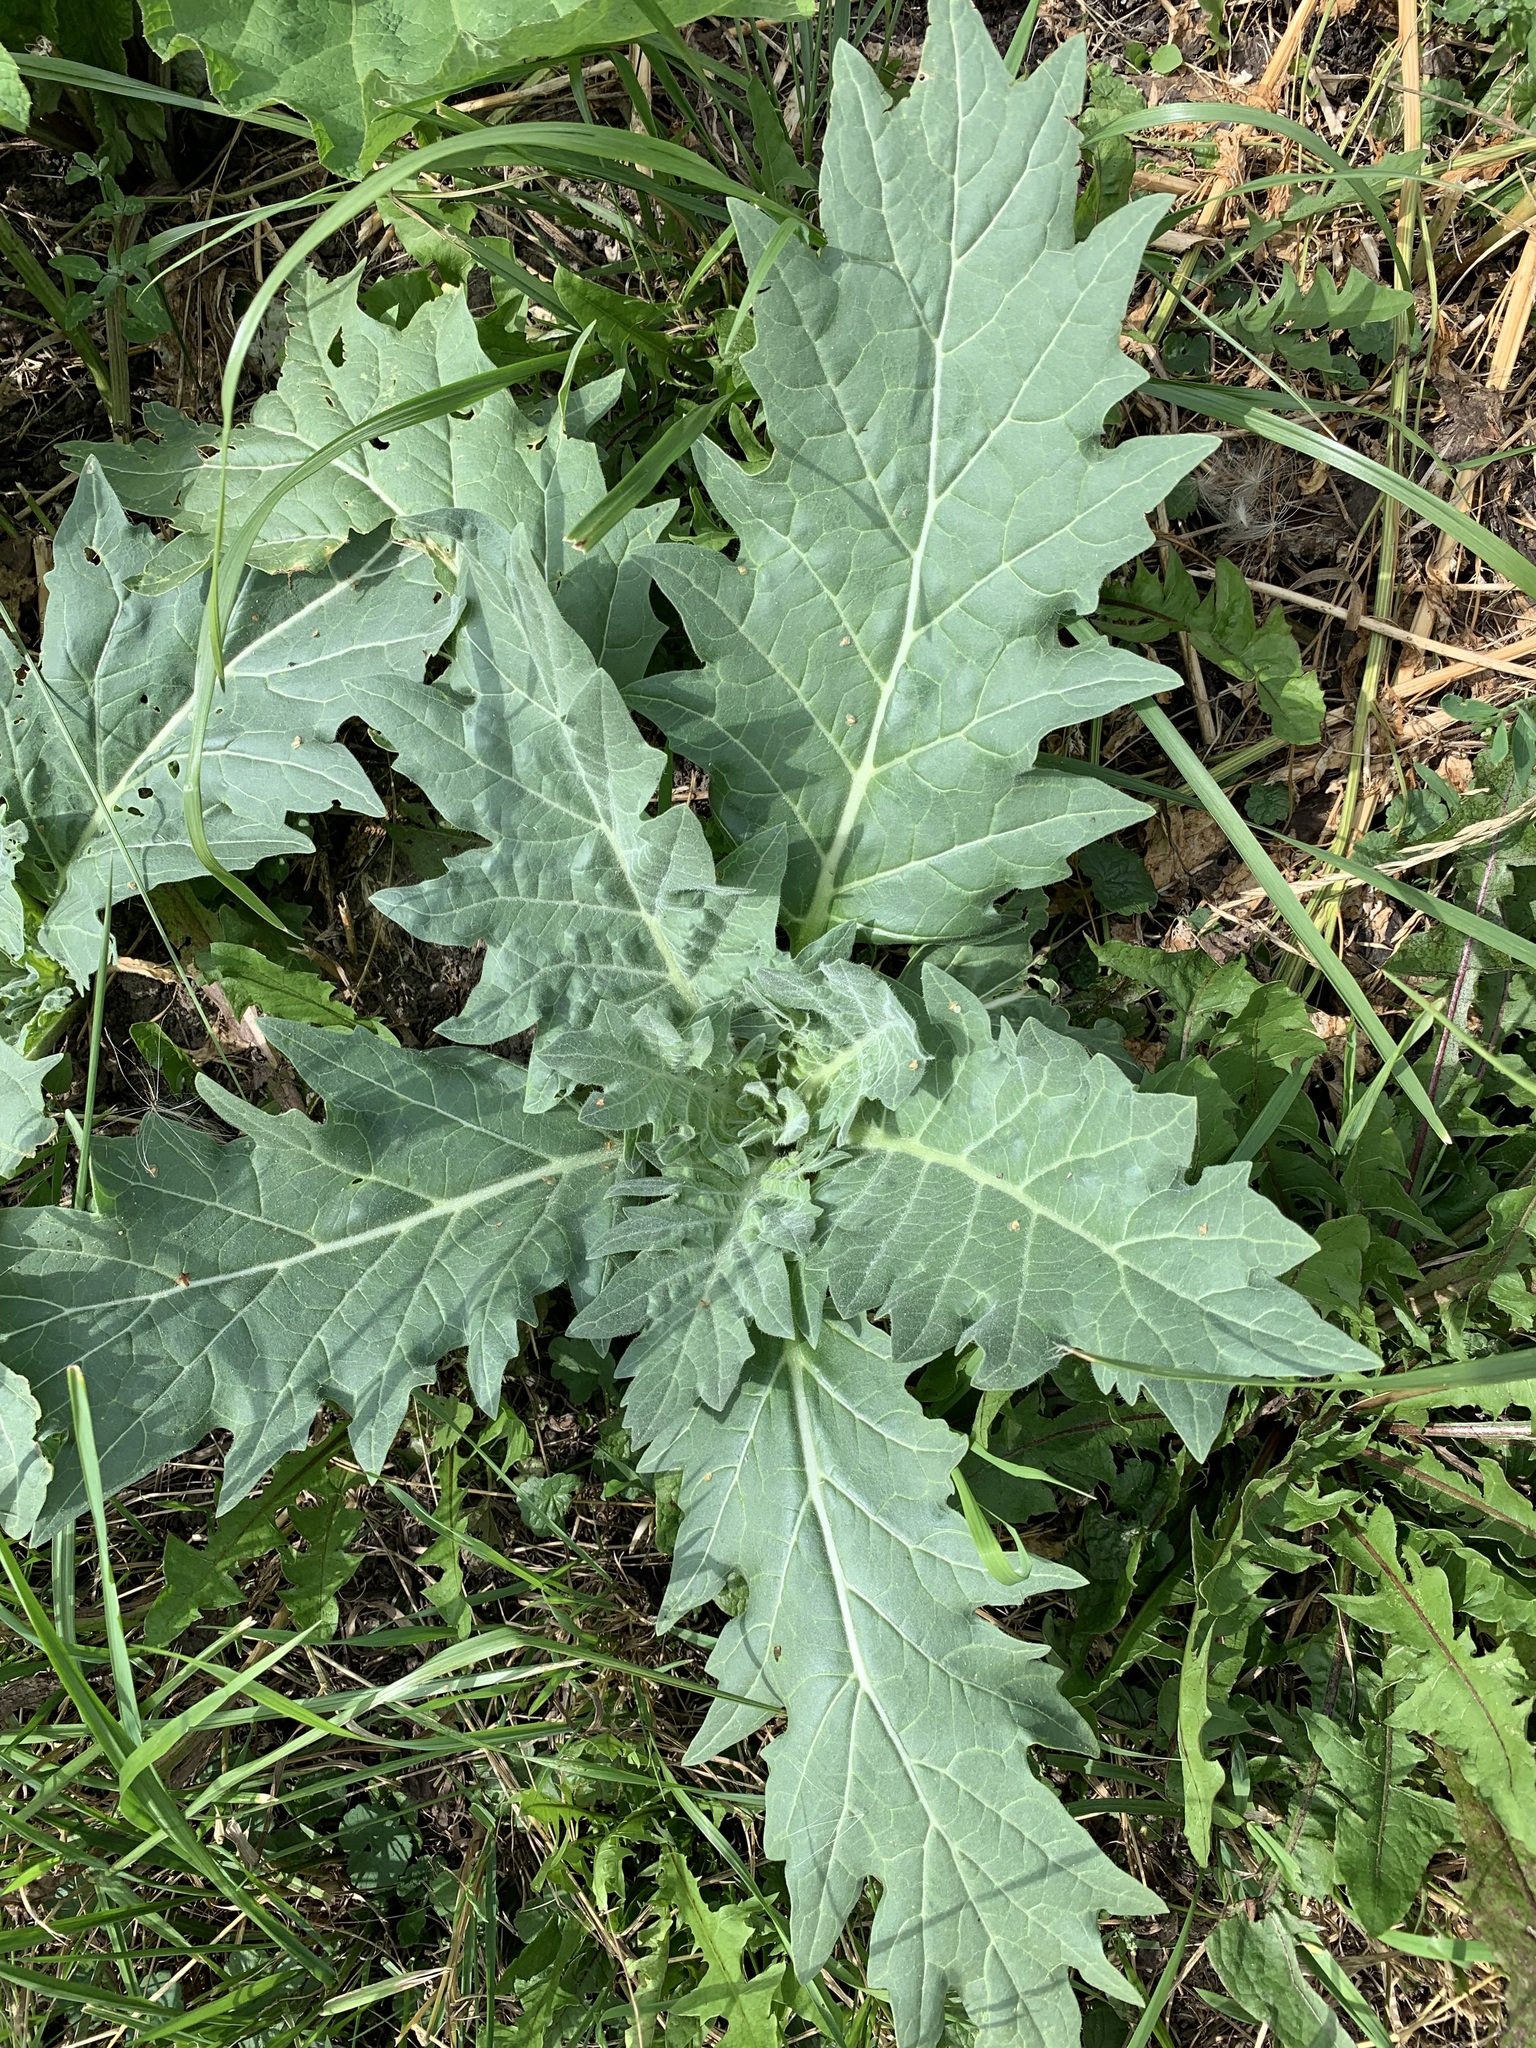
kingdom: Plantae
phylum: Tracheophyta
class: Magnoliopsida
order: Solanales
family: Solanaceae
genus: Hyoscyamus
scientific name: Hyoscyamus niger
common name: Henbane
